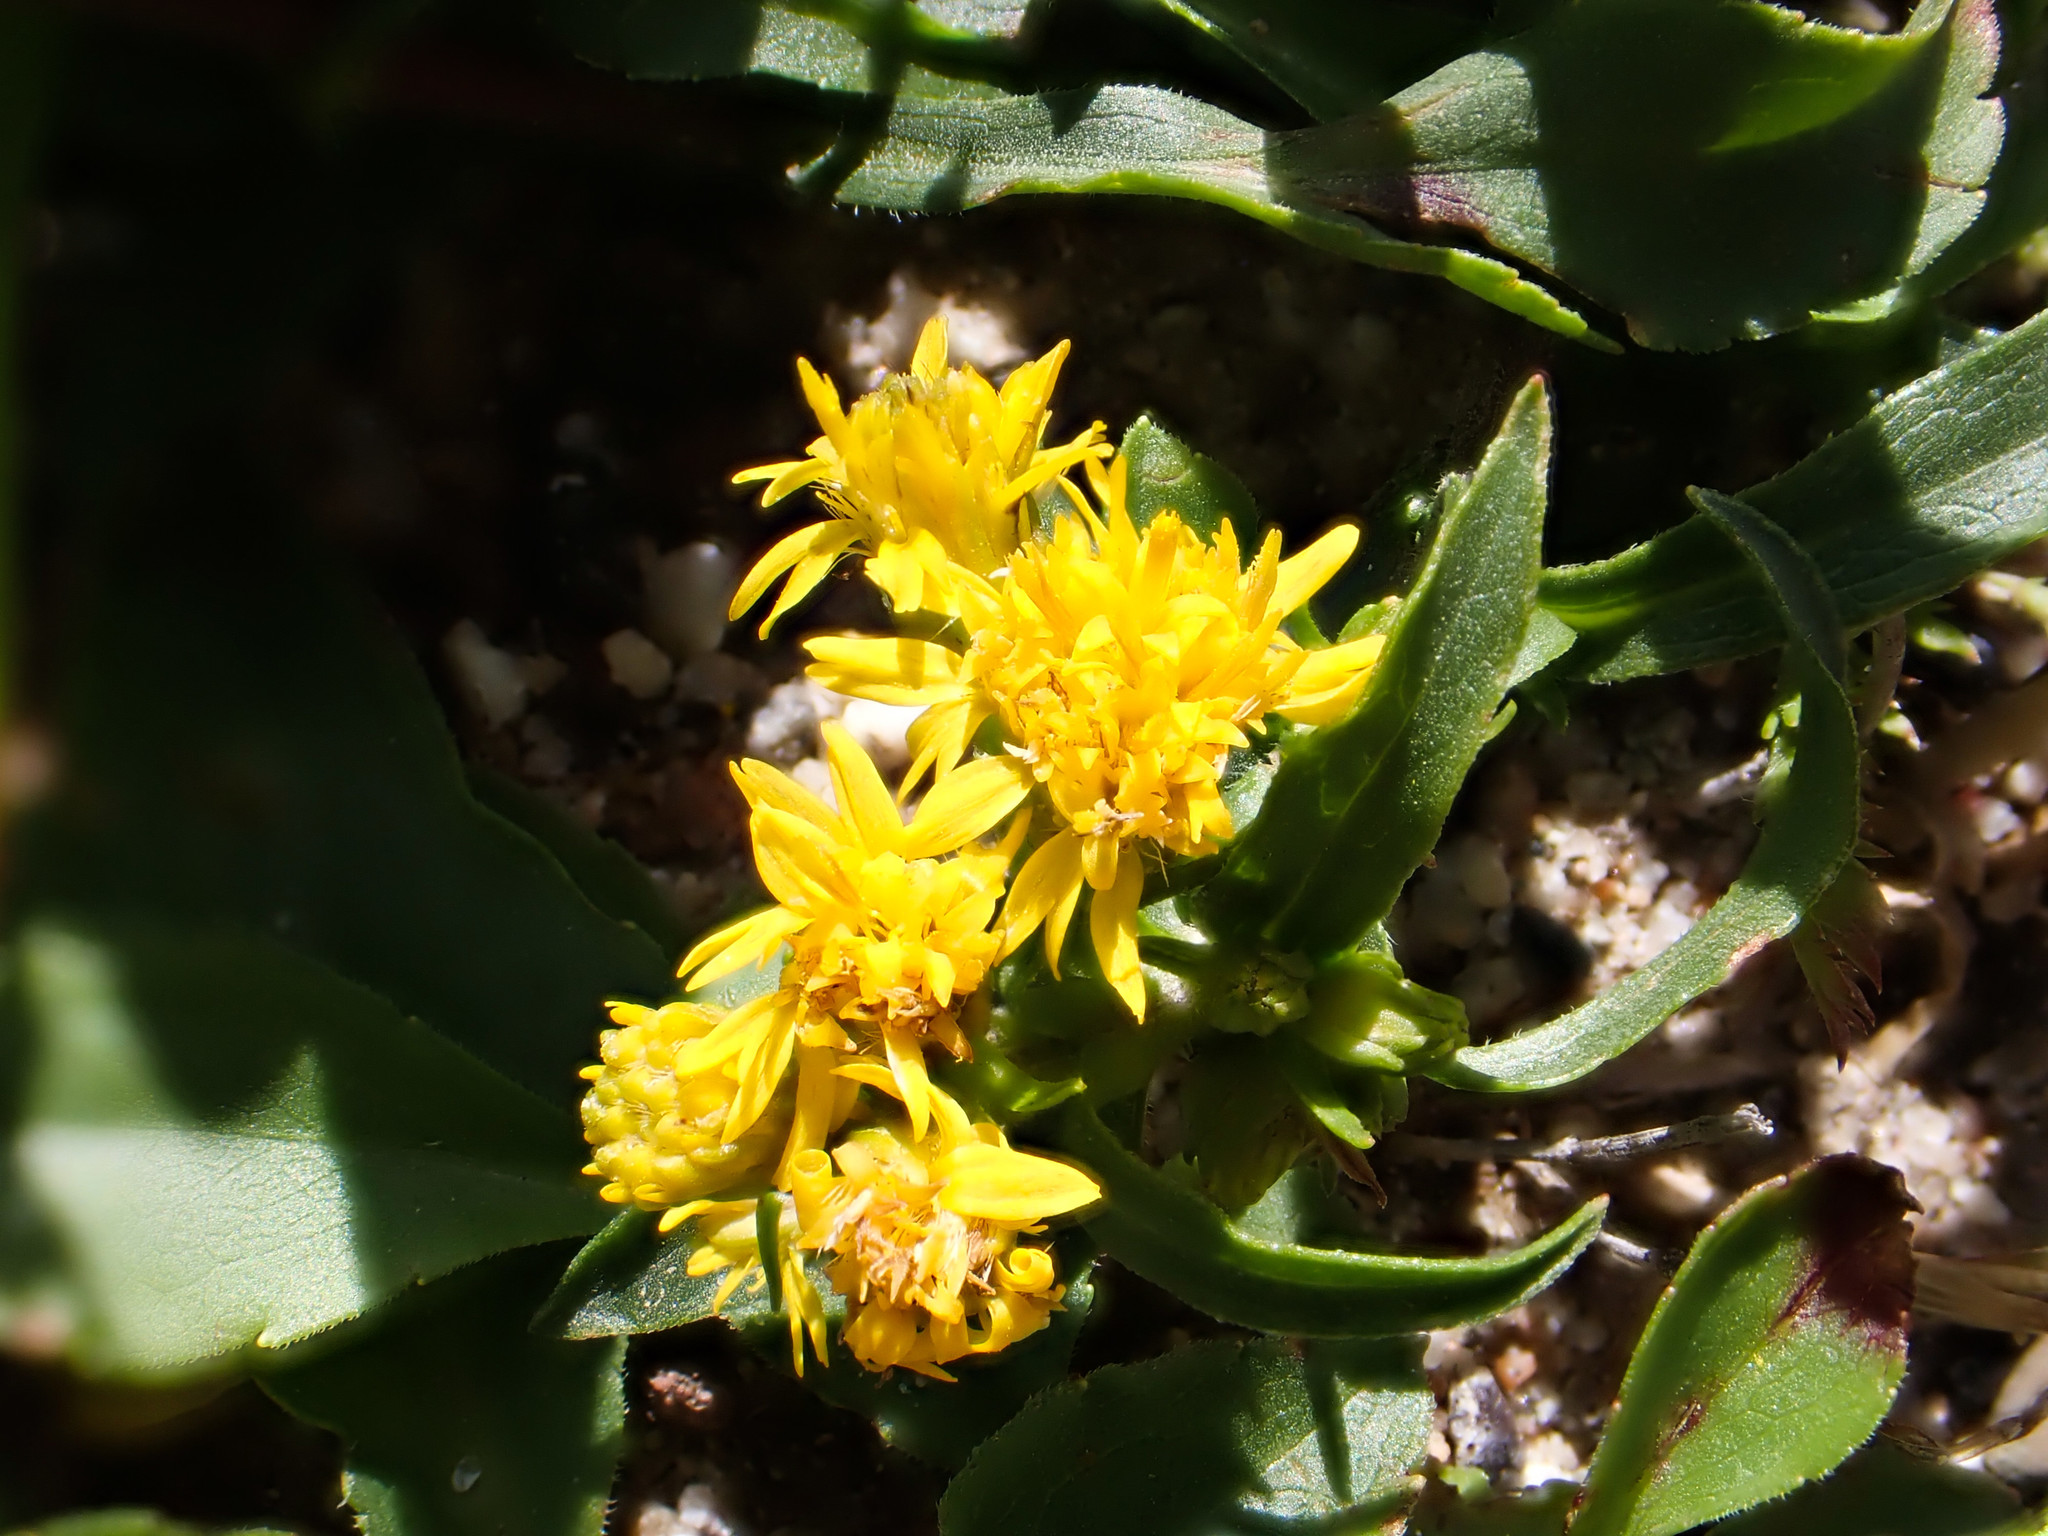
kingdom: Plantae
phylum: Tracheophyta
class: Magnoliopsida
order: Asterales
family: Asteraceae
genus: Solidago
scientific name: Solidago leiocarpa
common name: Cutler's alpine goldenrod
